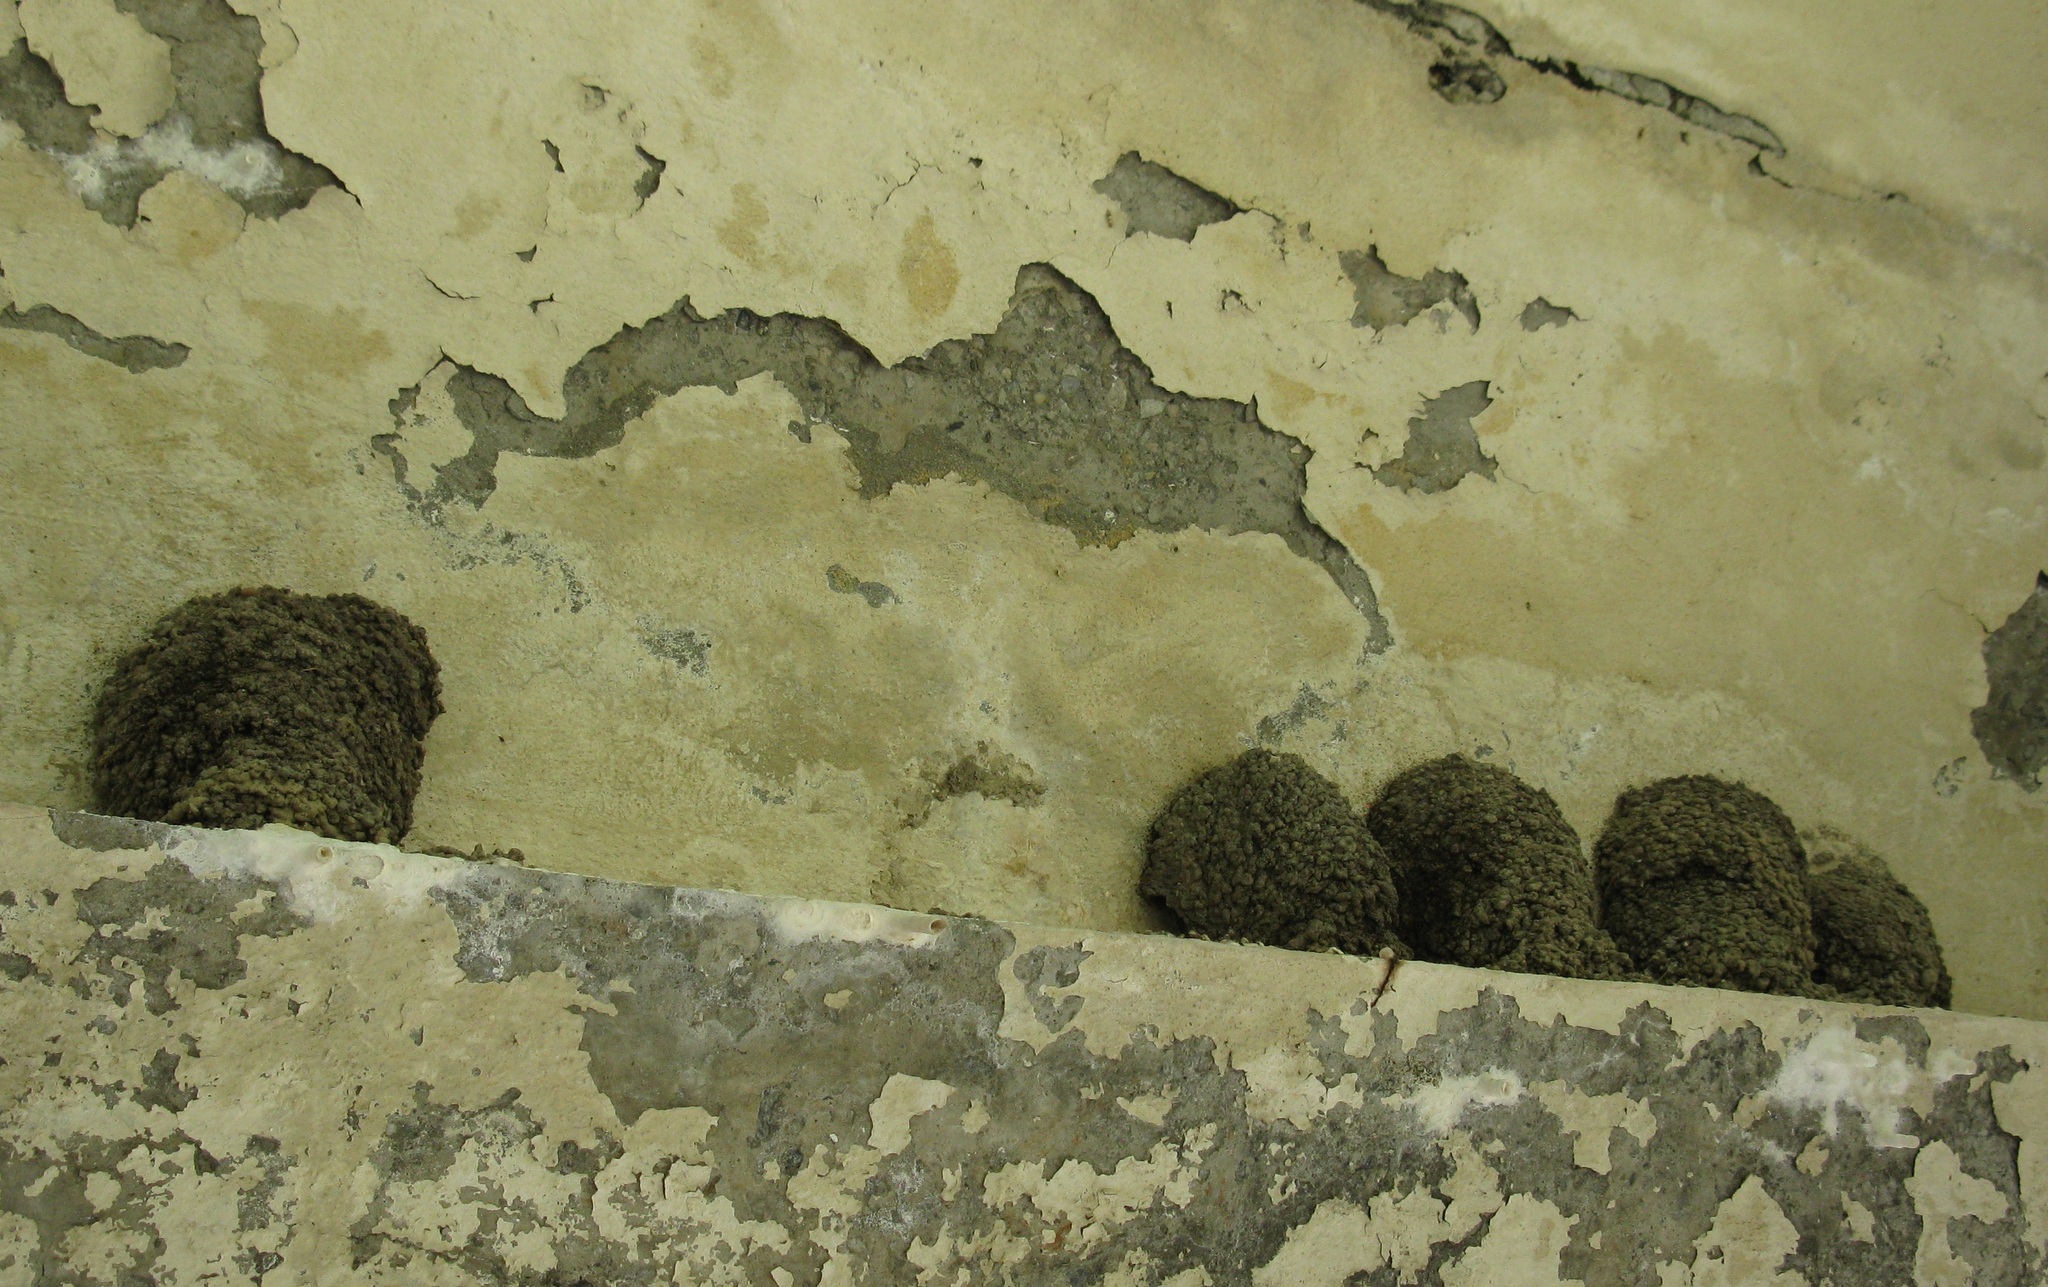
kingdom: Animalia
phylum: Chordata
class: Aves
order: Passeriformes
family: Hirundinidae
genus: Delichon
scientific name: Delichon urbicum
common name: Common house martin
